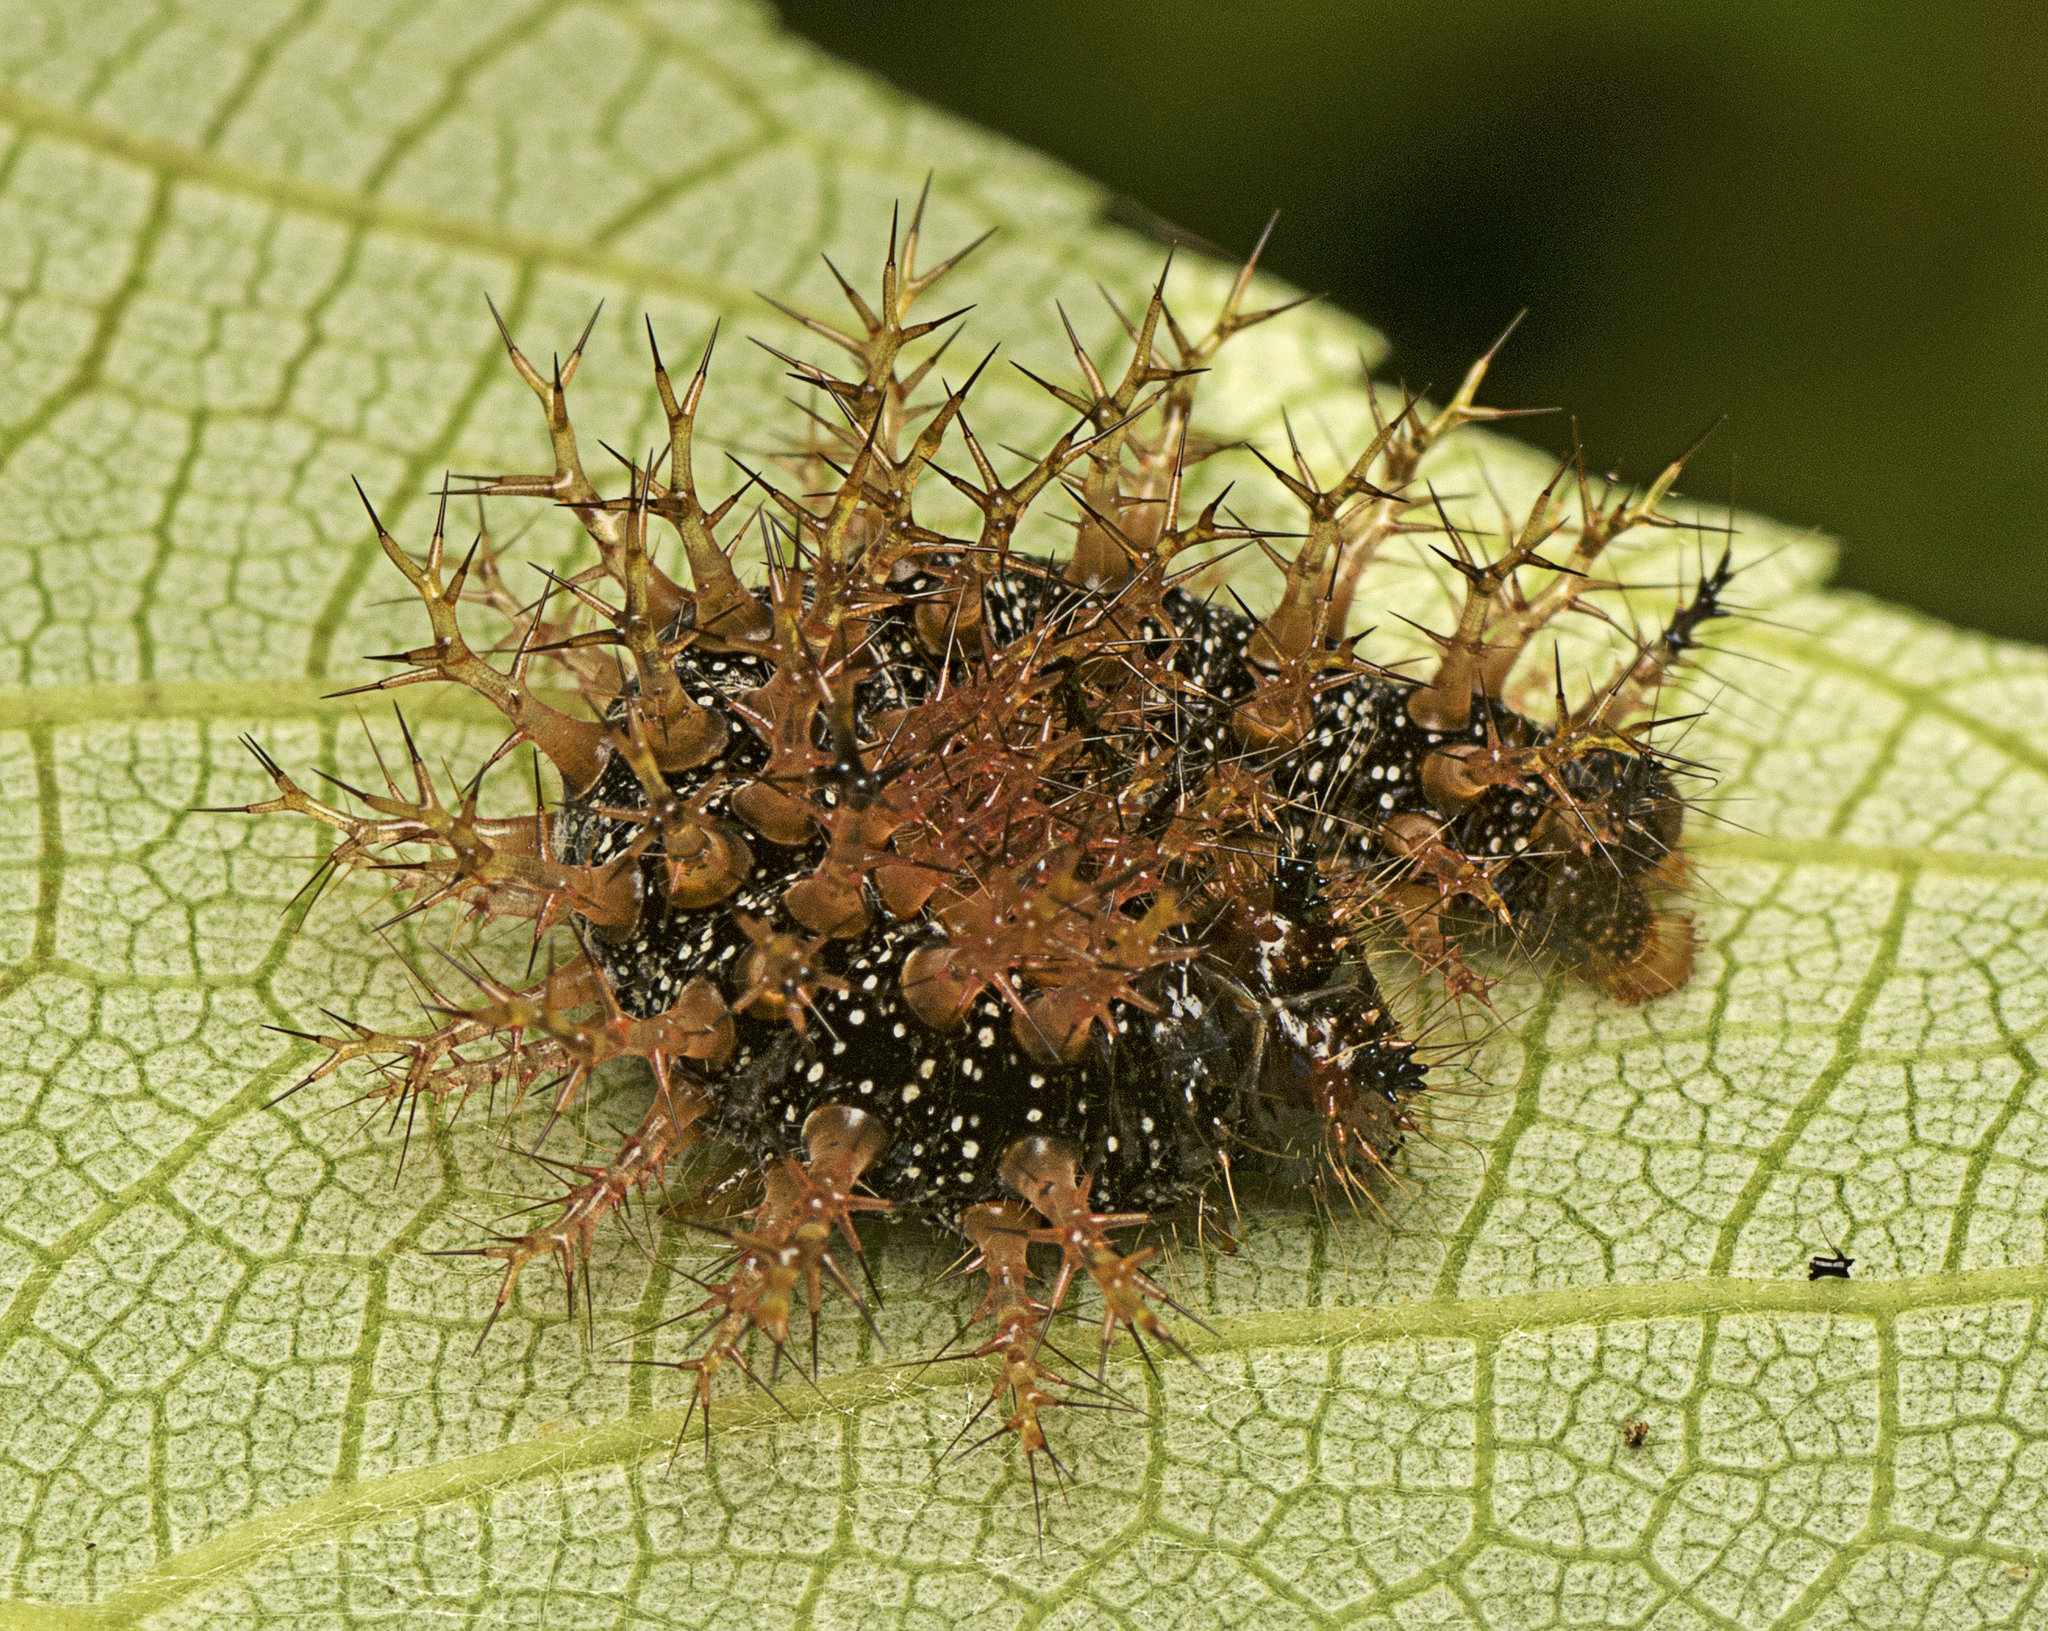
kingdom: Animalia
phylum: Arthropoda
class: Insecta
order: Lepidoptera
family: Nymphalidae
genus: Mynes
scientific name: Mynes geoffroyi
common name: Jezebel nymph
